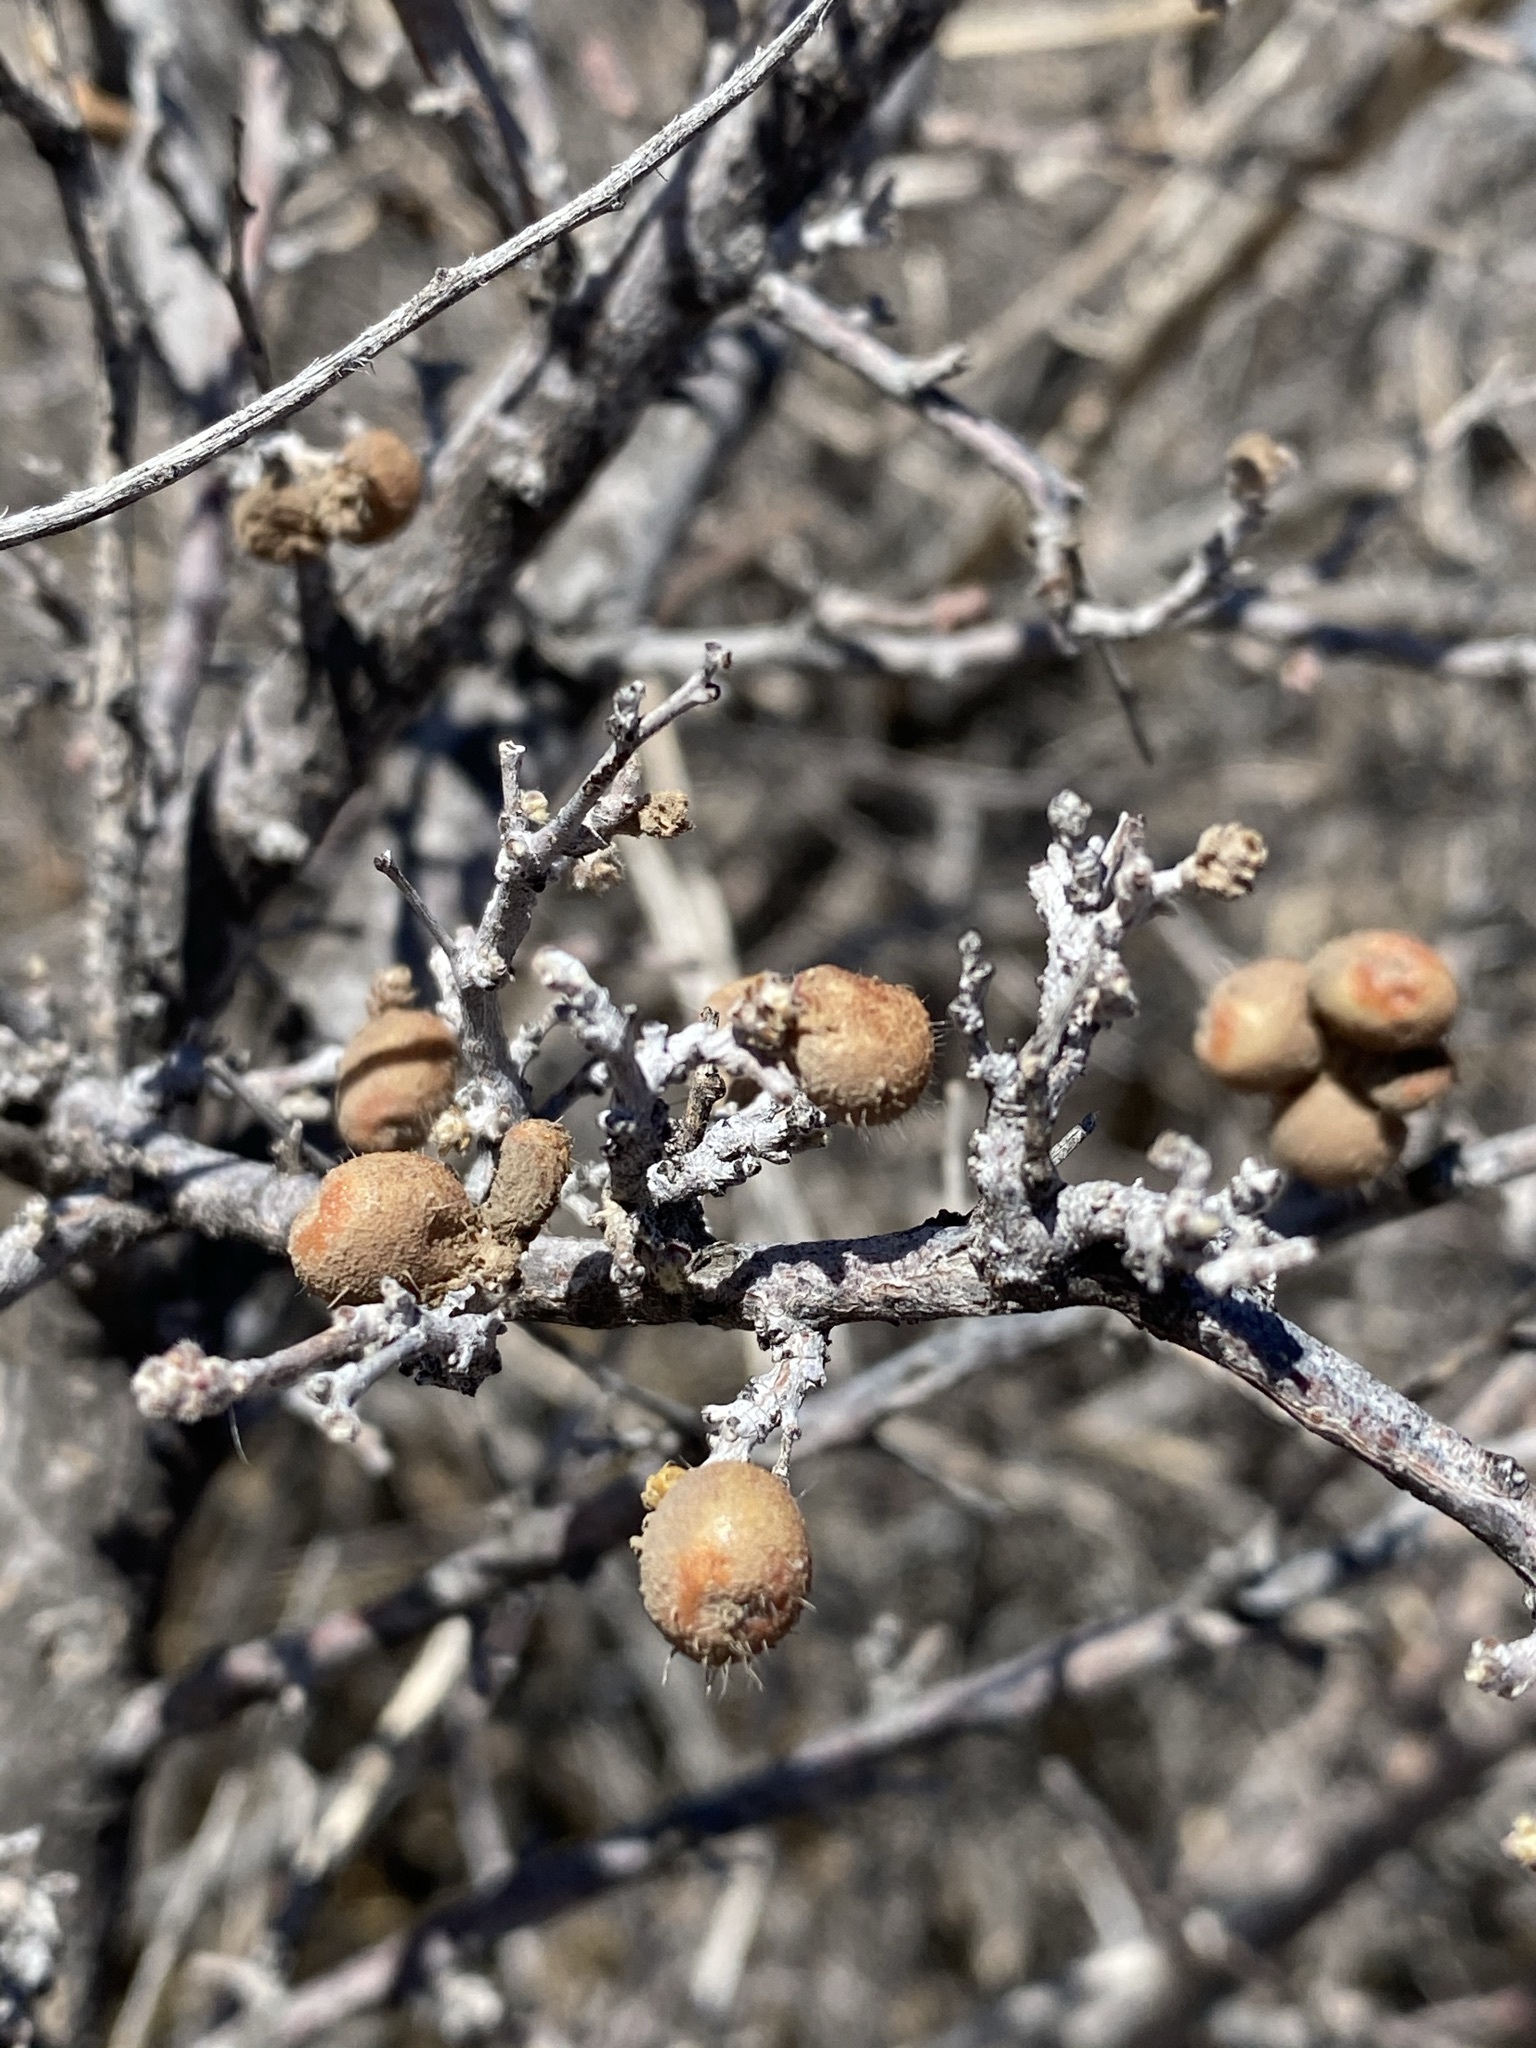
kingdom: Plantae
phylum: Tracheophyta
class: Magnoliopsida
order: Sapindales
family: Anacardiaceae
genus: Rhus
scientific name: Rhus microphylla
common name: Desert sumac
